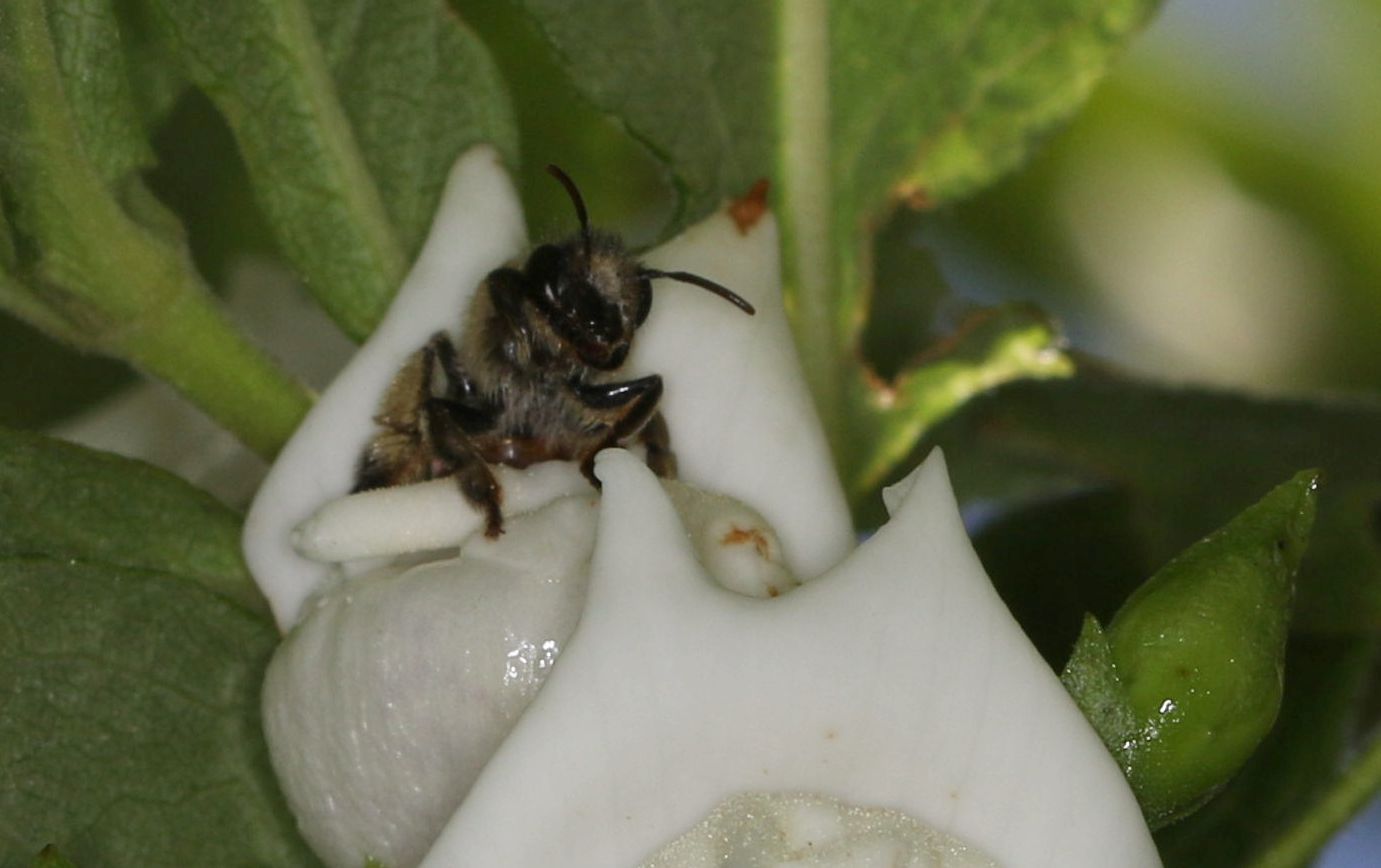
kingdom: Animalia
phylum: Arthropoda
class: Insecta
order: Hymenoptera
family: Melittidae
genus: Rediviva
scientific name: Rediviva rufocincta
